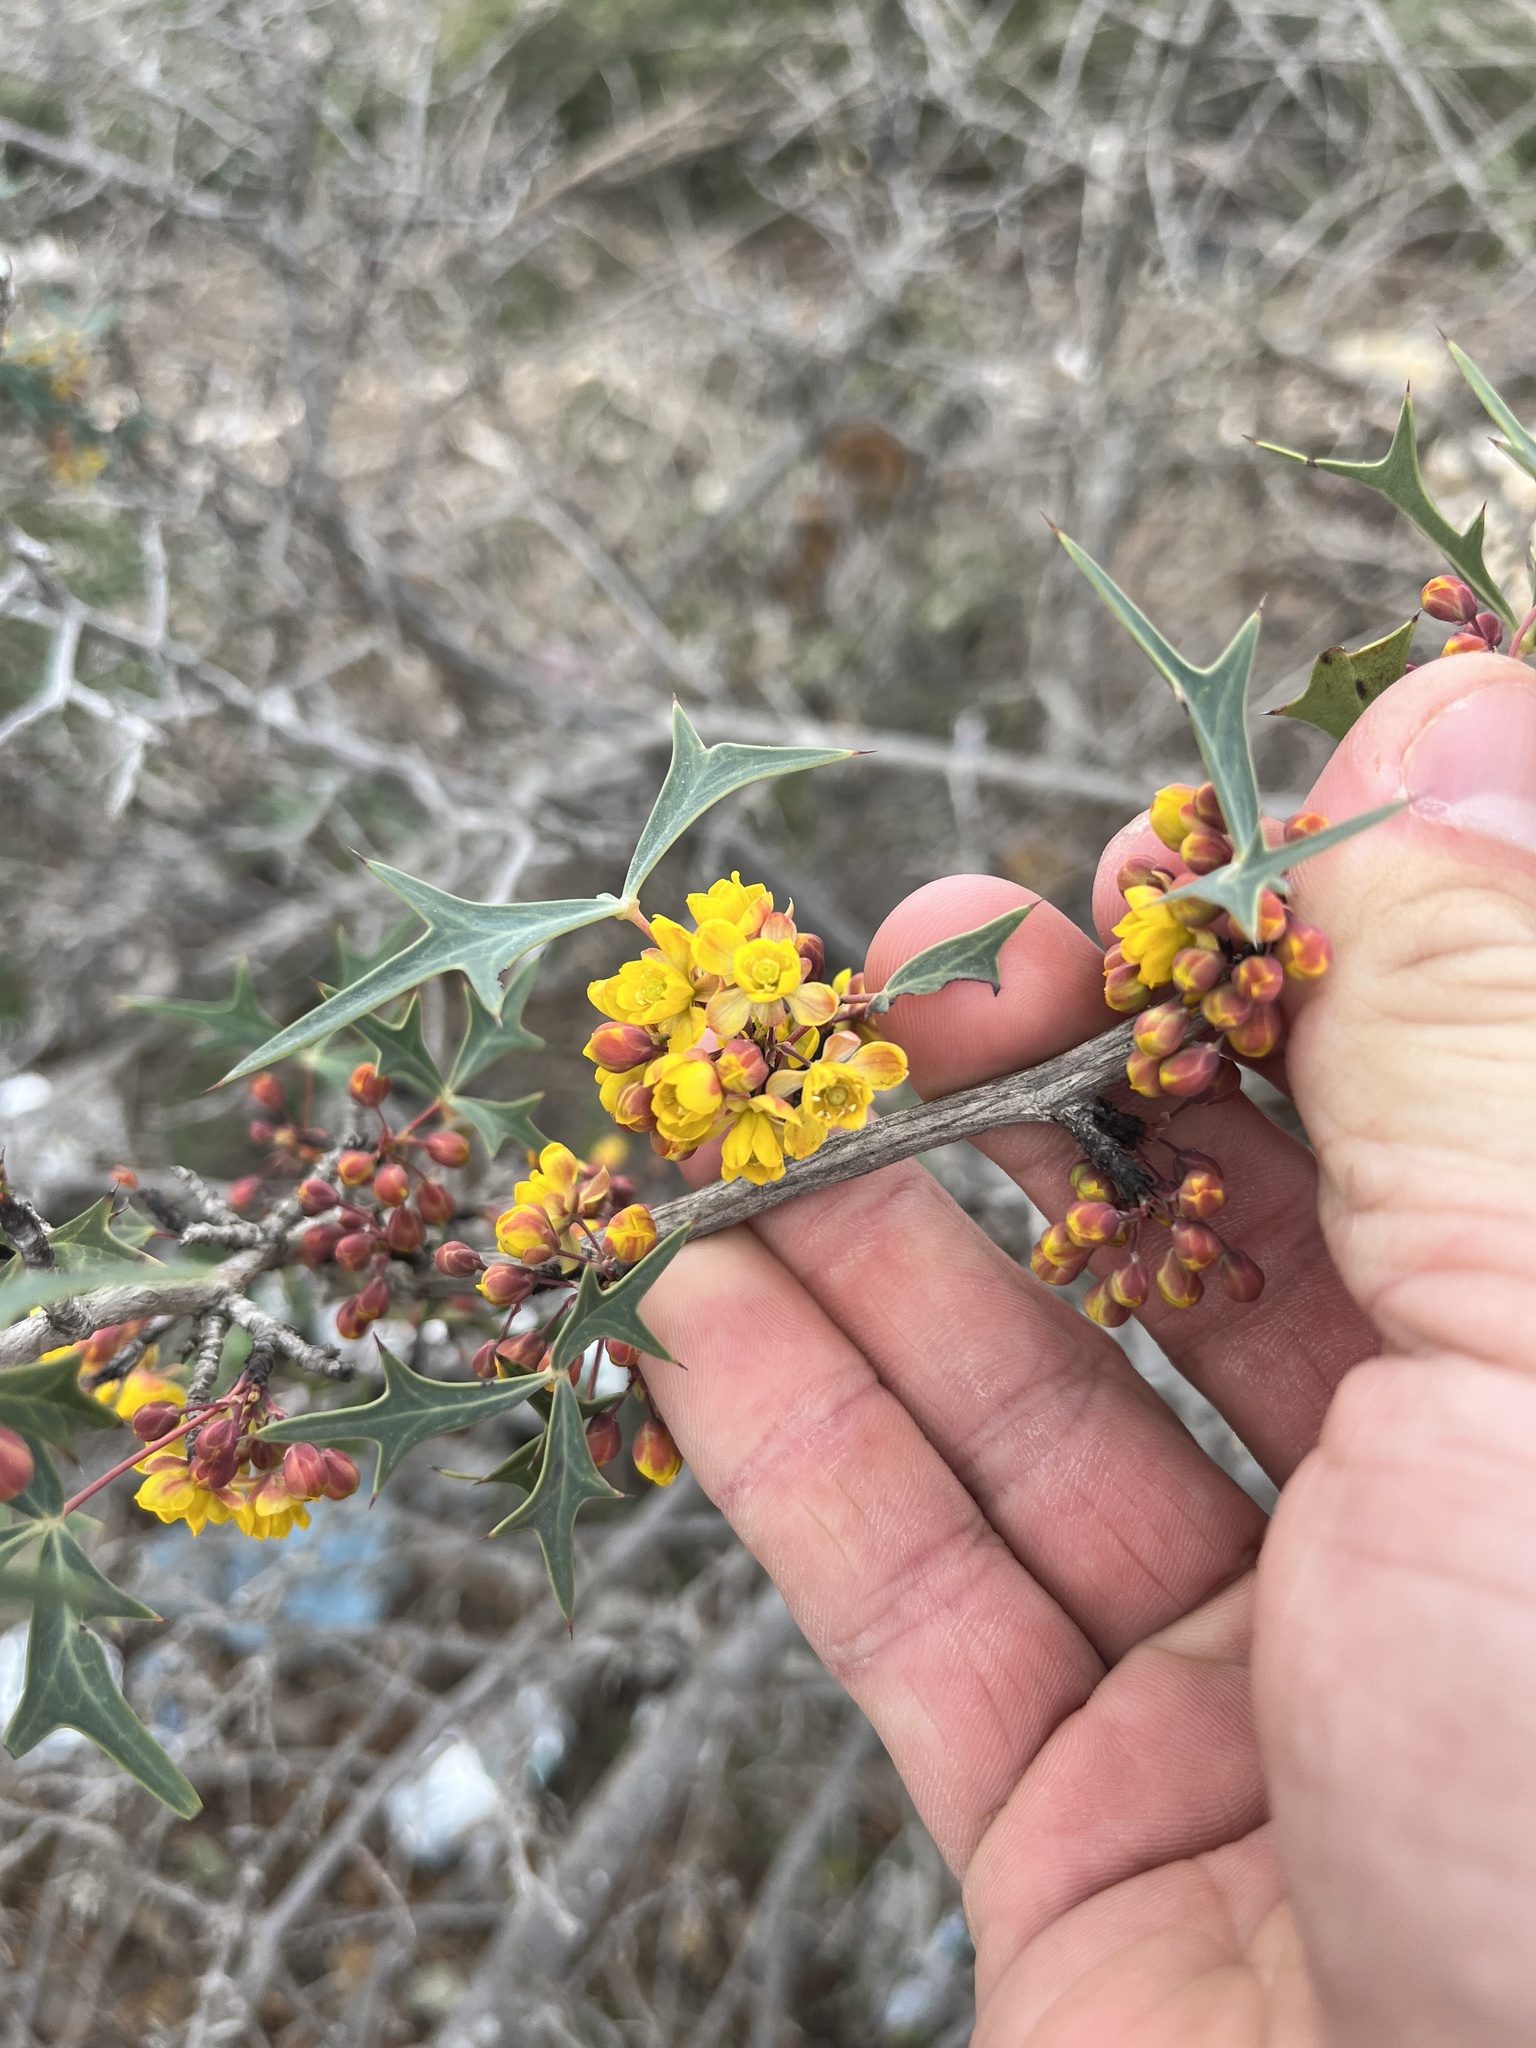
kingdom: Plantae
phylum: Tracheophyta
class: Magnoliopsida
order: Ranunculales
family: Berberidaceae
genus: Alloberberis
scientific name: Alloberberis trifoliolata
